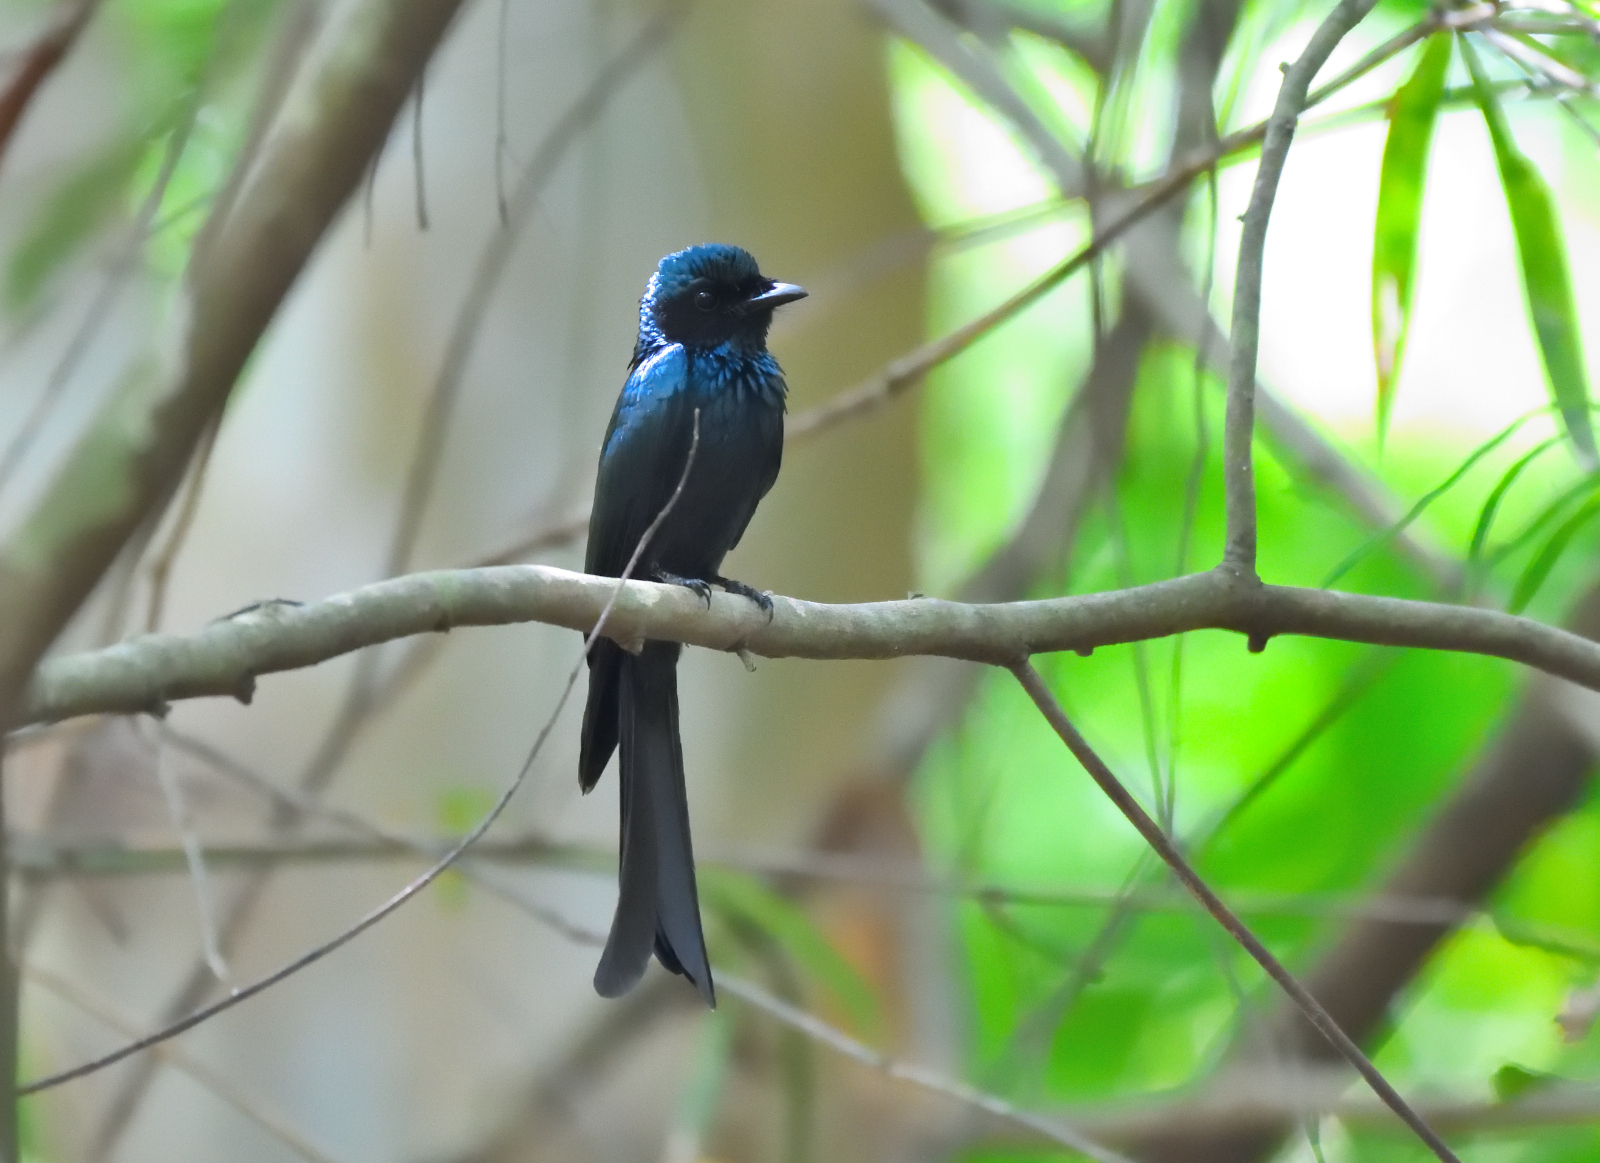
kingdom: Animalia
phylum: Chordata
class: Aves
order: Passeriformes
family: Dicruridae
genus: Dicrurus
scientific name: Dicrurus aeneus
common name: Bronzed drongo
